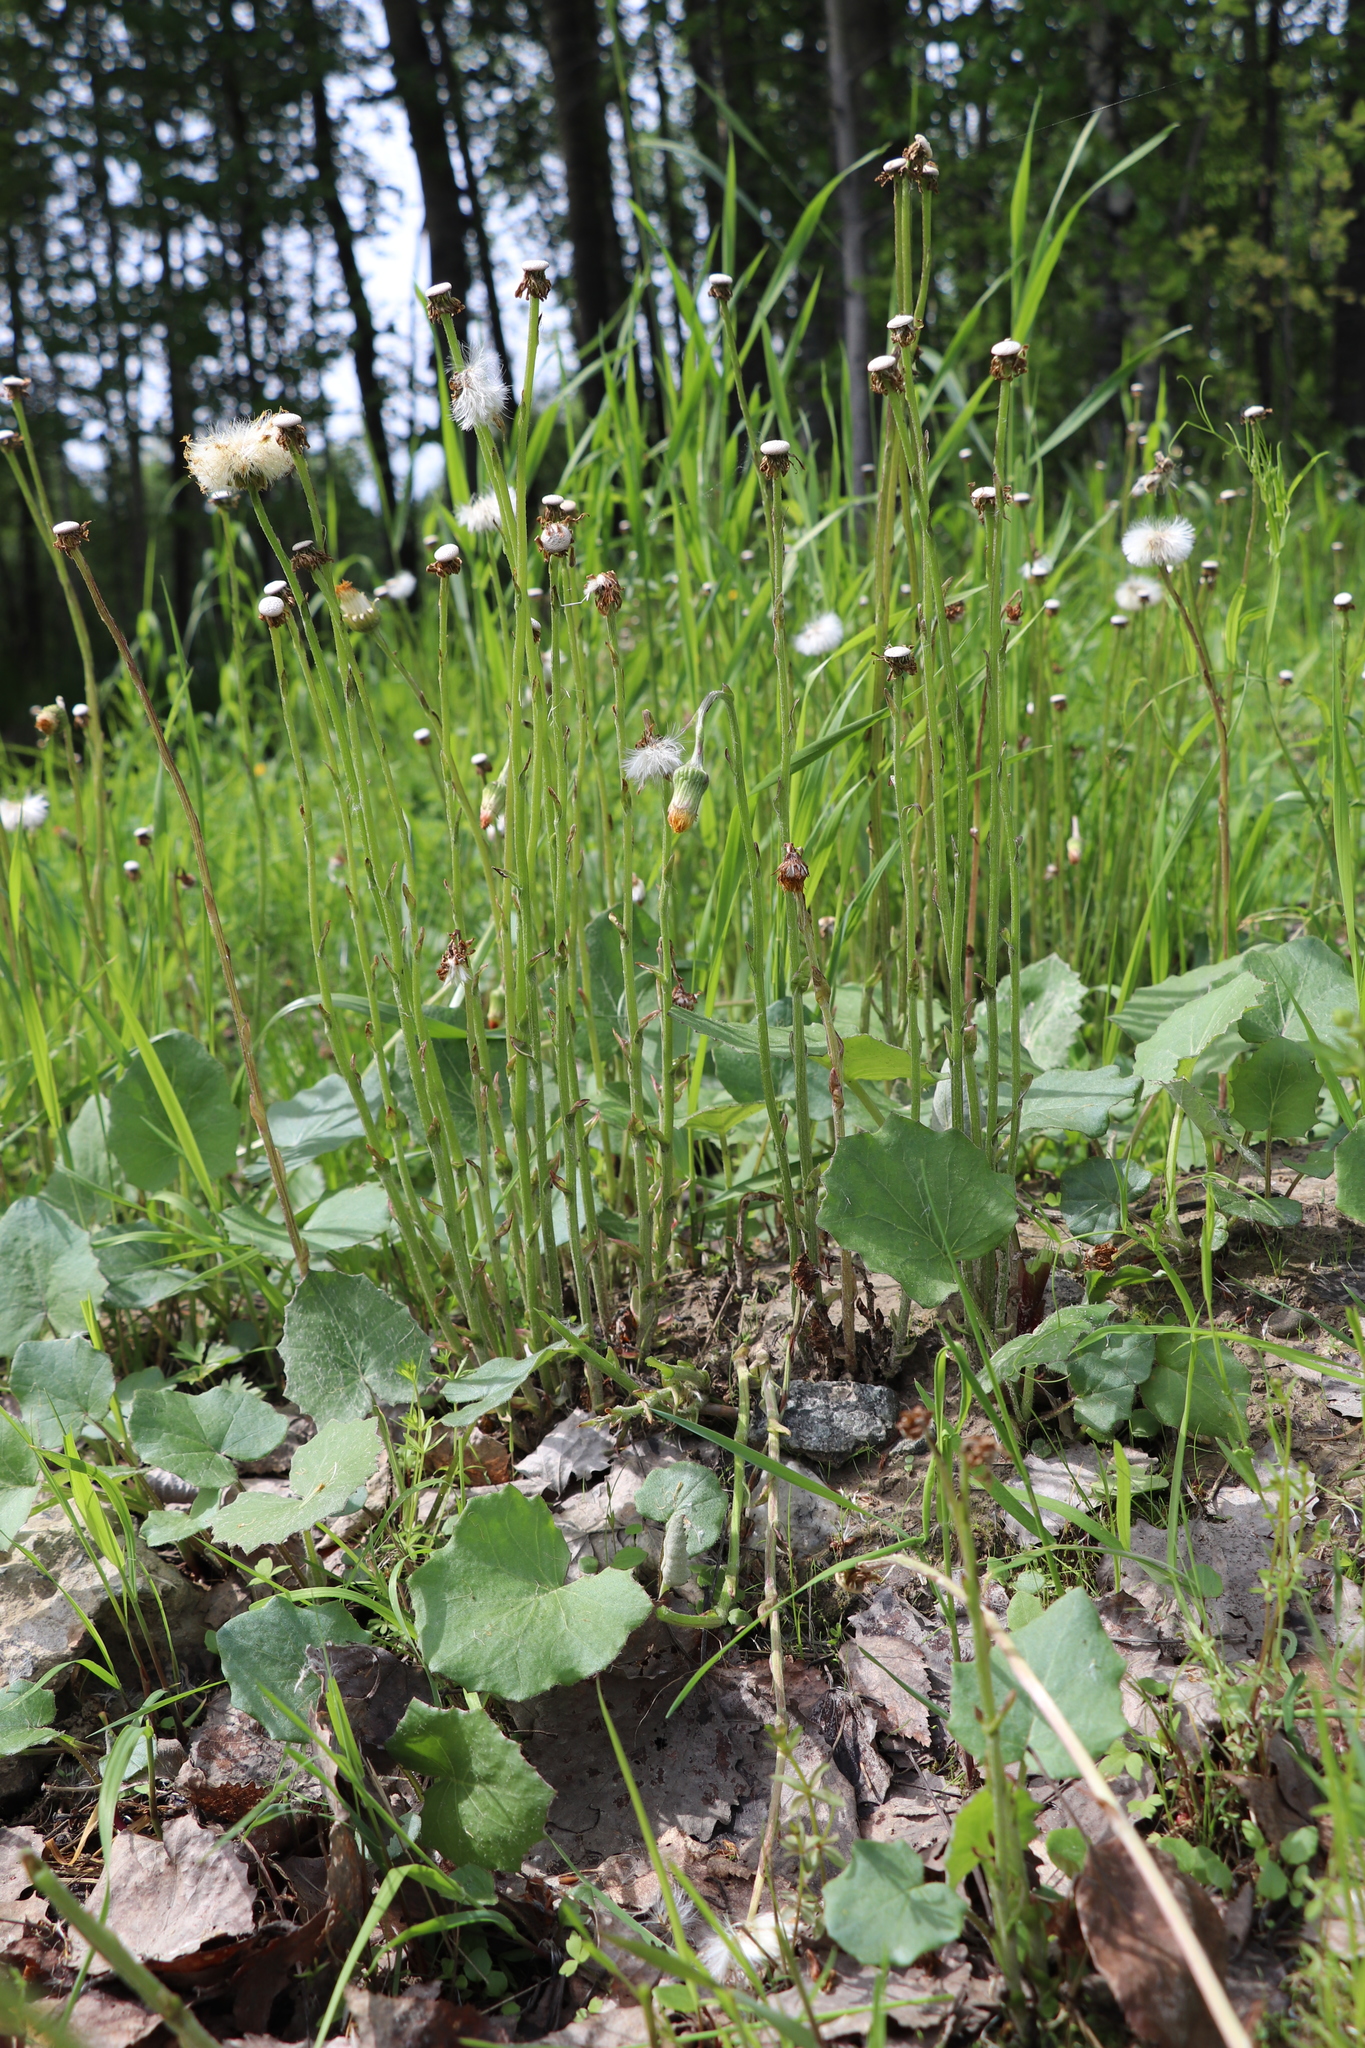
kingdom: Plantae
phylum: Tracheophyta
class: Magnoliopsida
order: Asterales
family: Asteraceae
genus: Tussilago
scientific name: Tussilago farfara
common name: Coltsfoot
